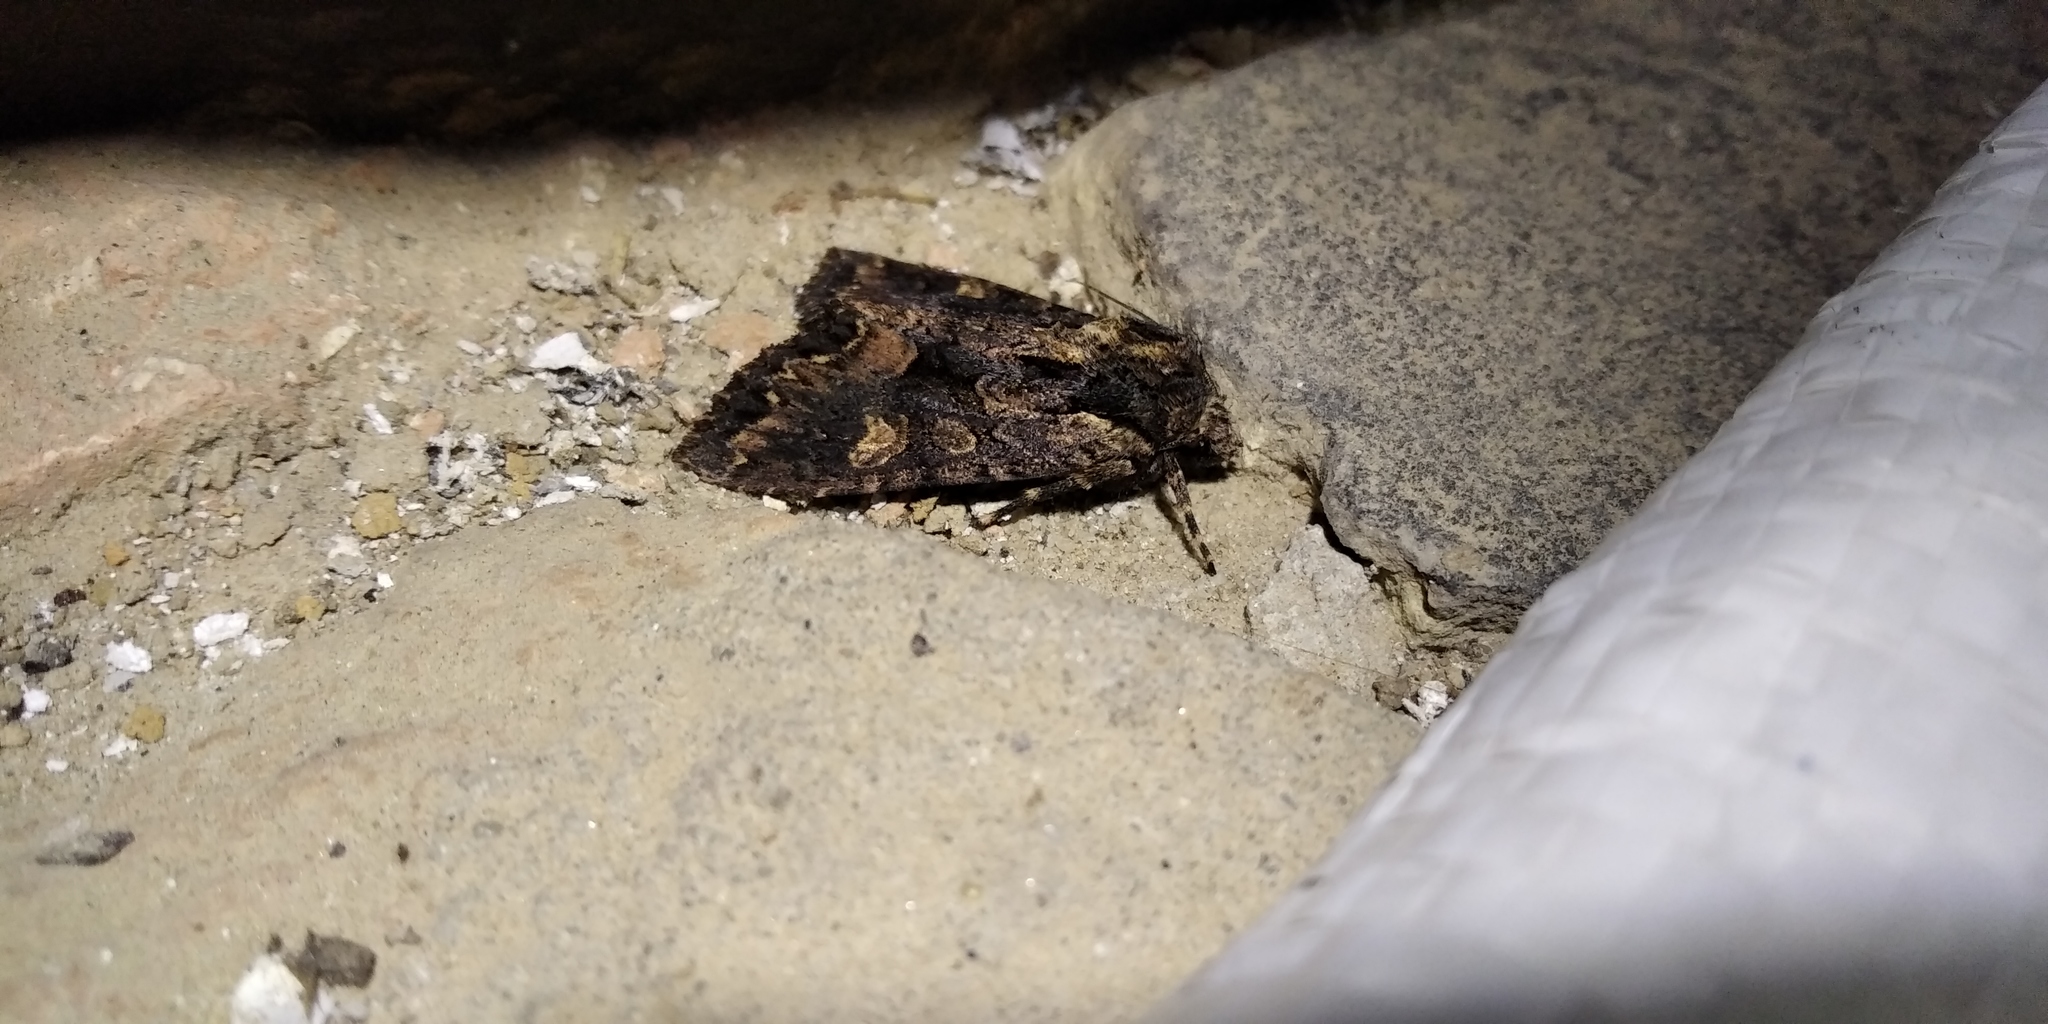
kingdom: Animalia
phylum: Arthropoda
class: Insecta
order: Lepidoptera
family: Noctuidae
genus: Mniotype
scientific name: Mniotype satura
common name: Beautiful arches
